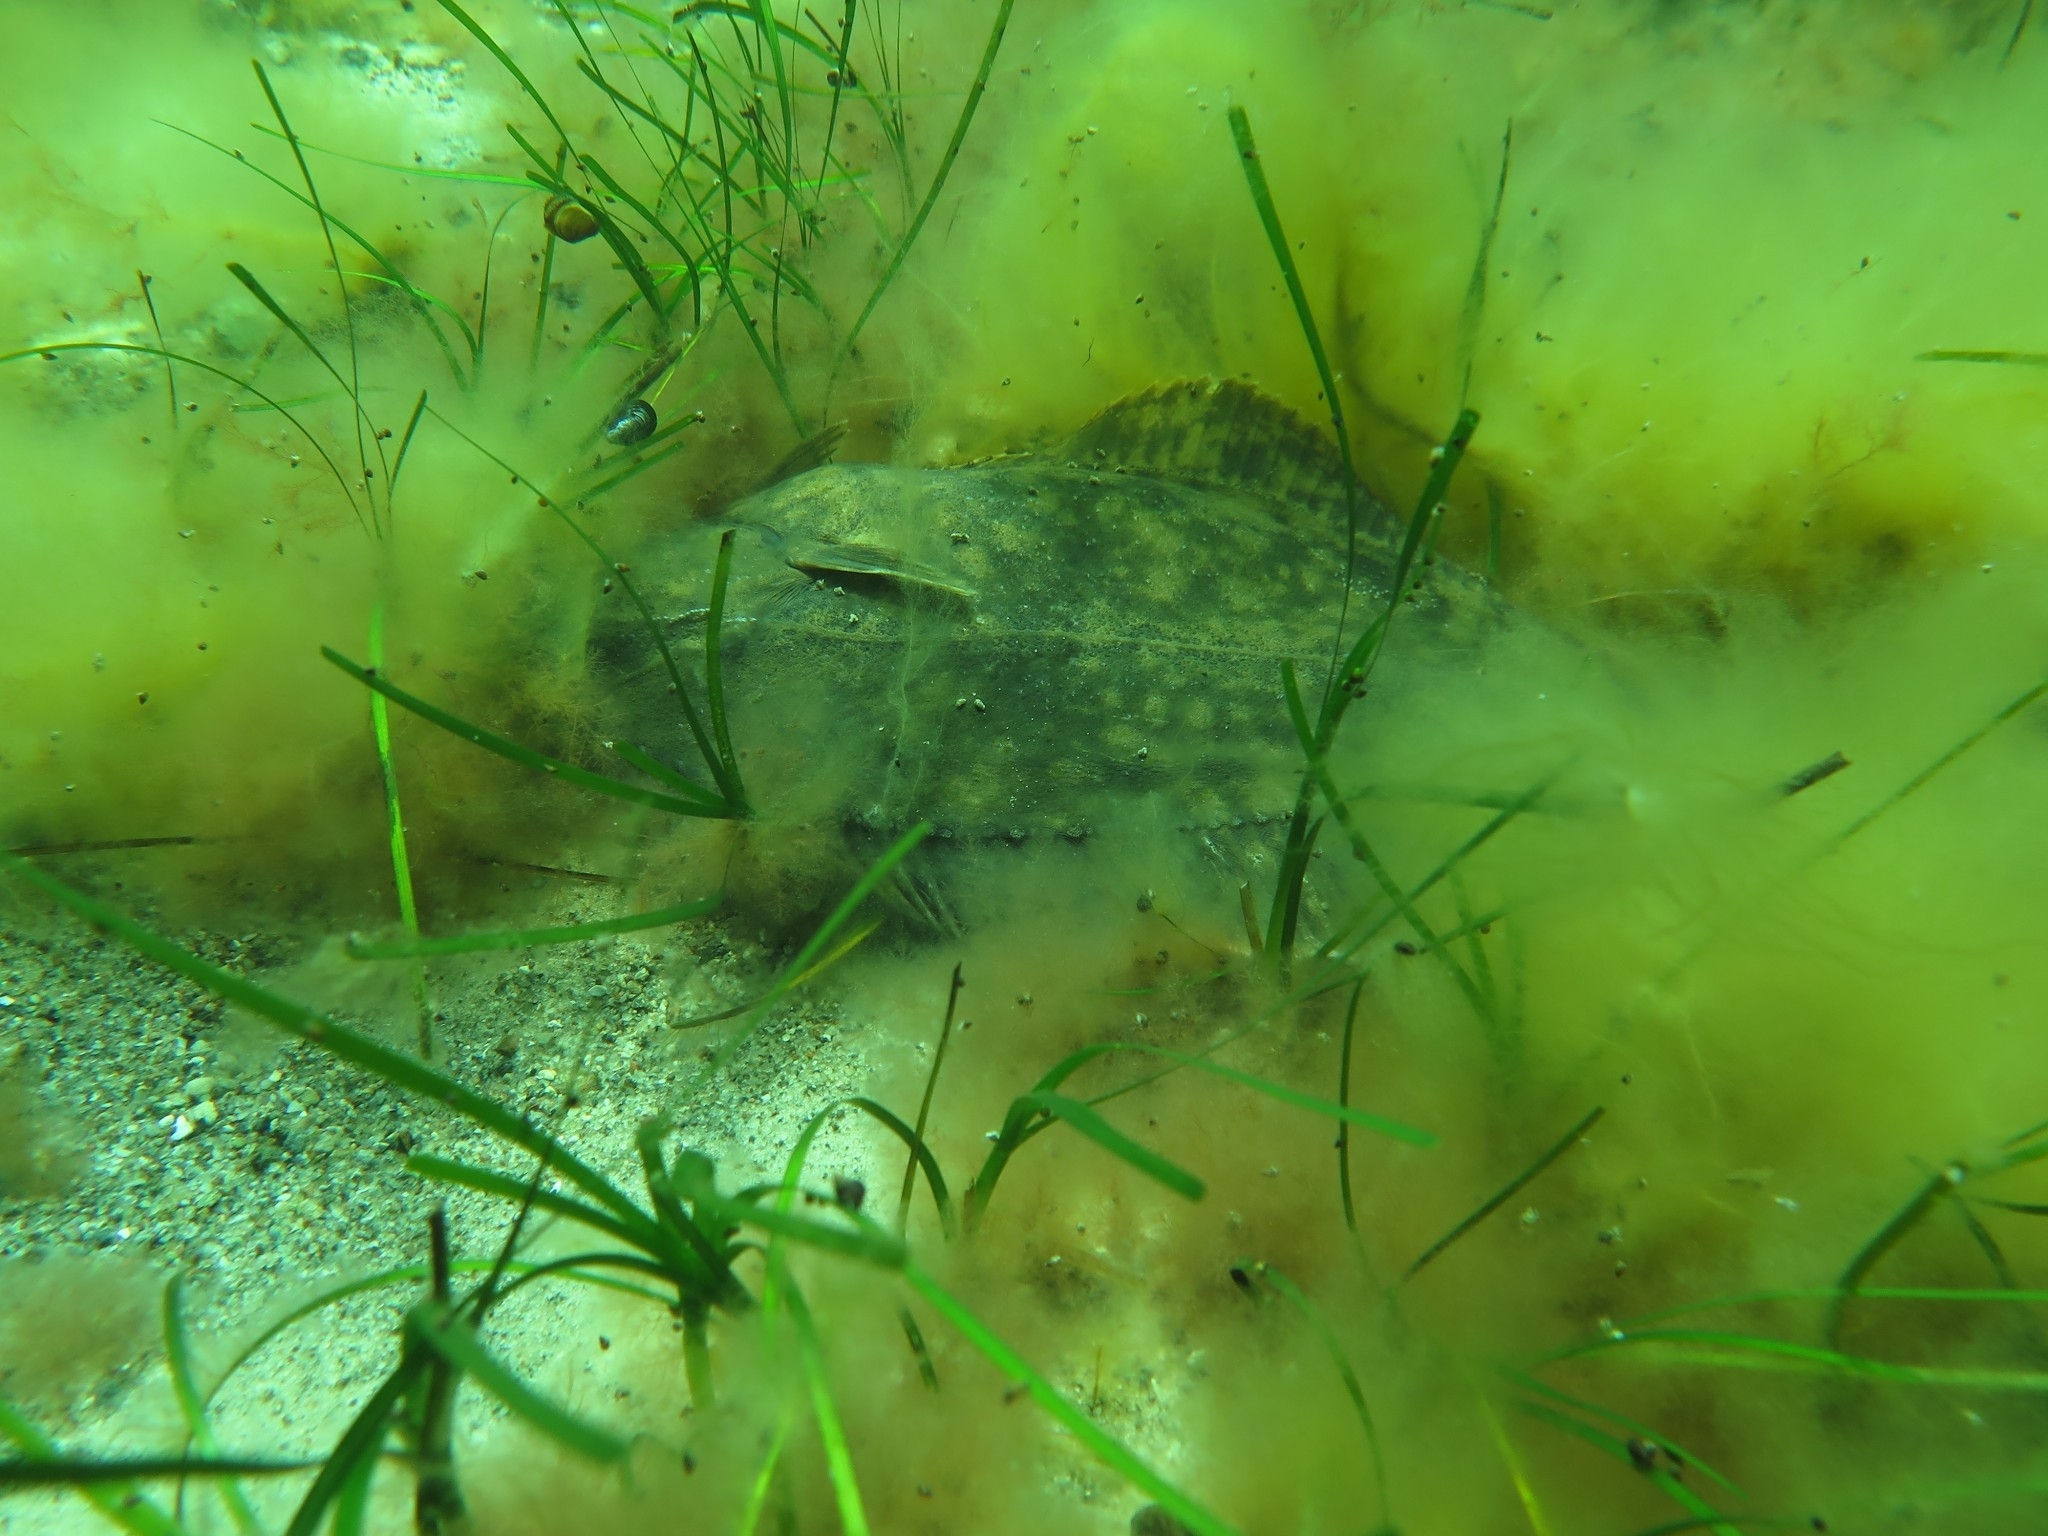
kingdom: Animalia
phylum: Chordata
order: Pleuronectiformes
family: Pleuronectidae
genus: Platichthys
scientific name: Platichthys flesus
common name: European flounder
